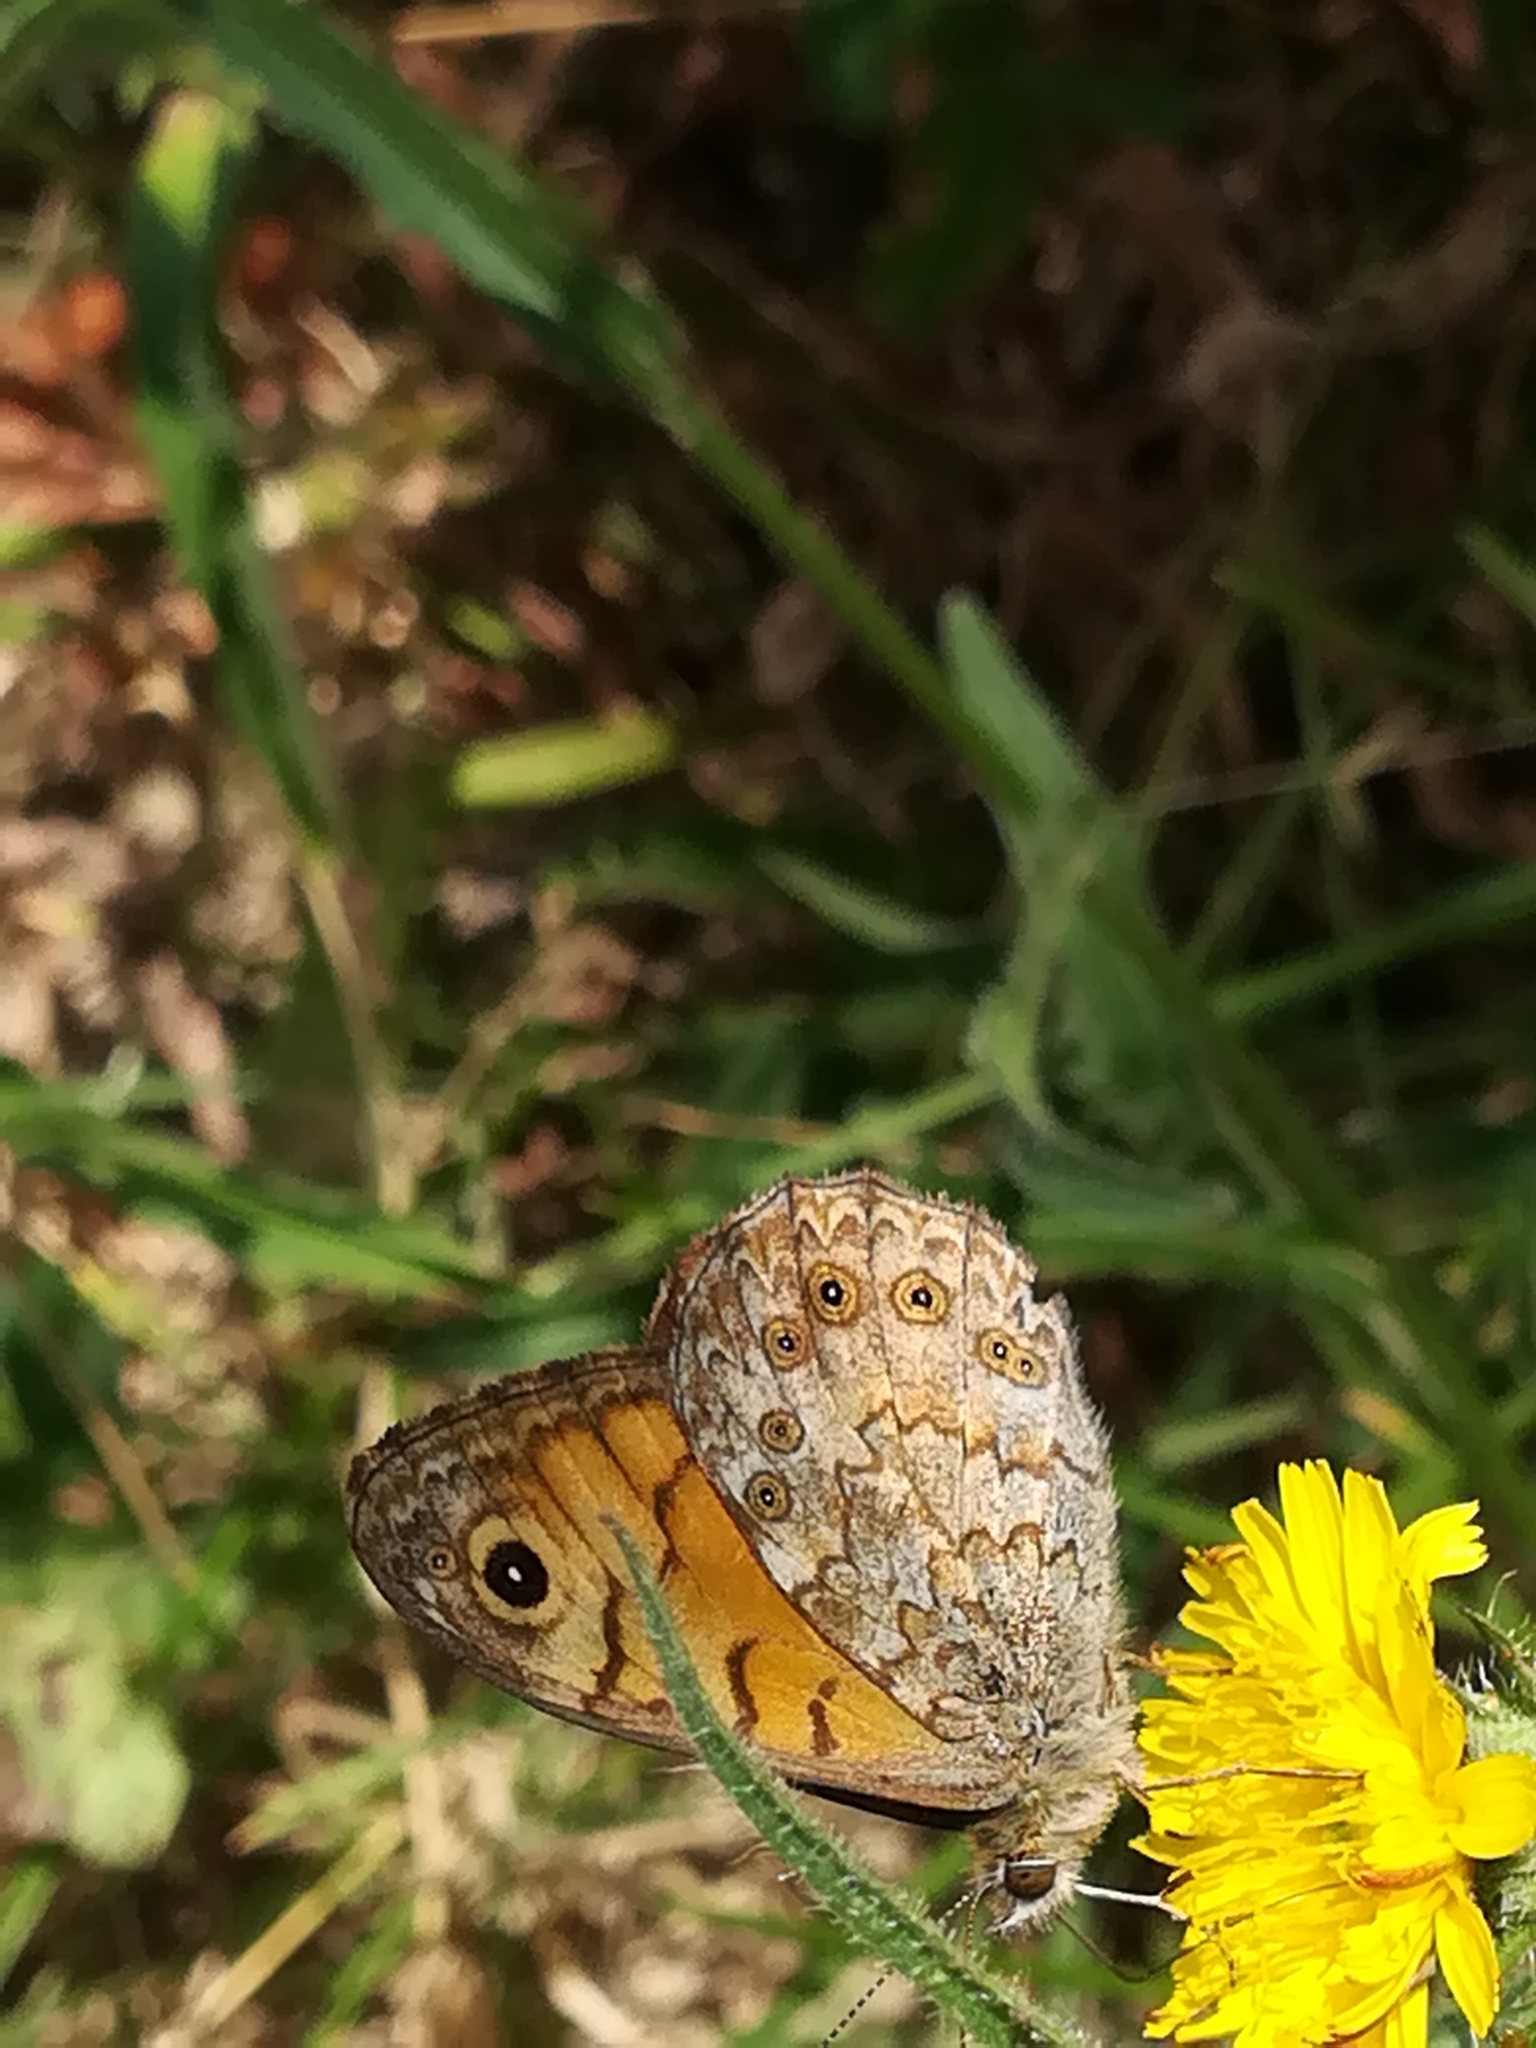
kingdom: Animalia
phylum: Arthropoda
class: Insecta
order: Lepidoptera
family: Nymphalidae
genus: Pararge
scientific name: Pararge Lasiommata megera
